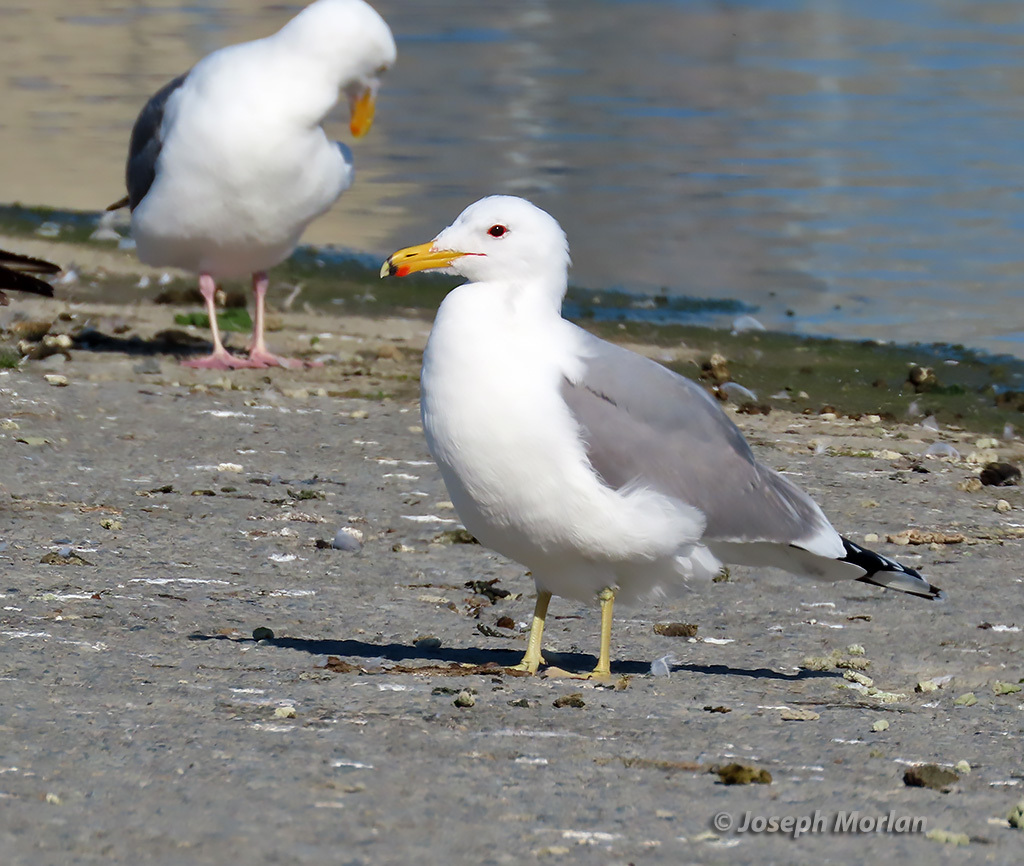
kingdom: Animalia
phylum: Chordata
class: Aves
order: Charadriiformes
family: Laridae
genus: Larus
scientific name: Larus californicus
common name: California gull
